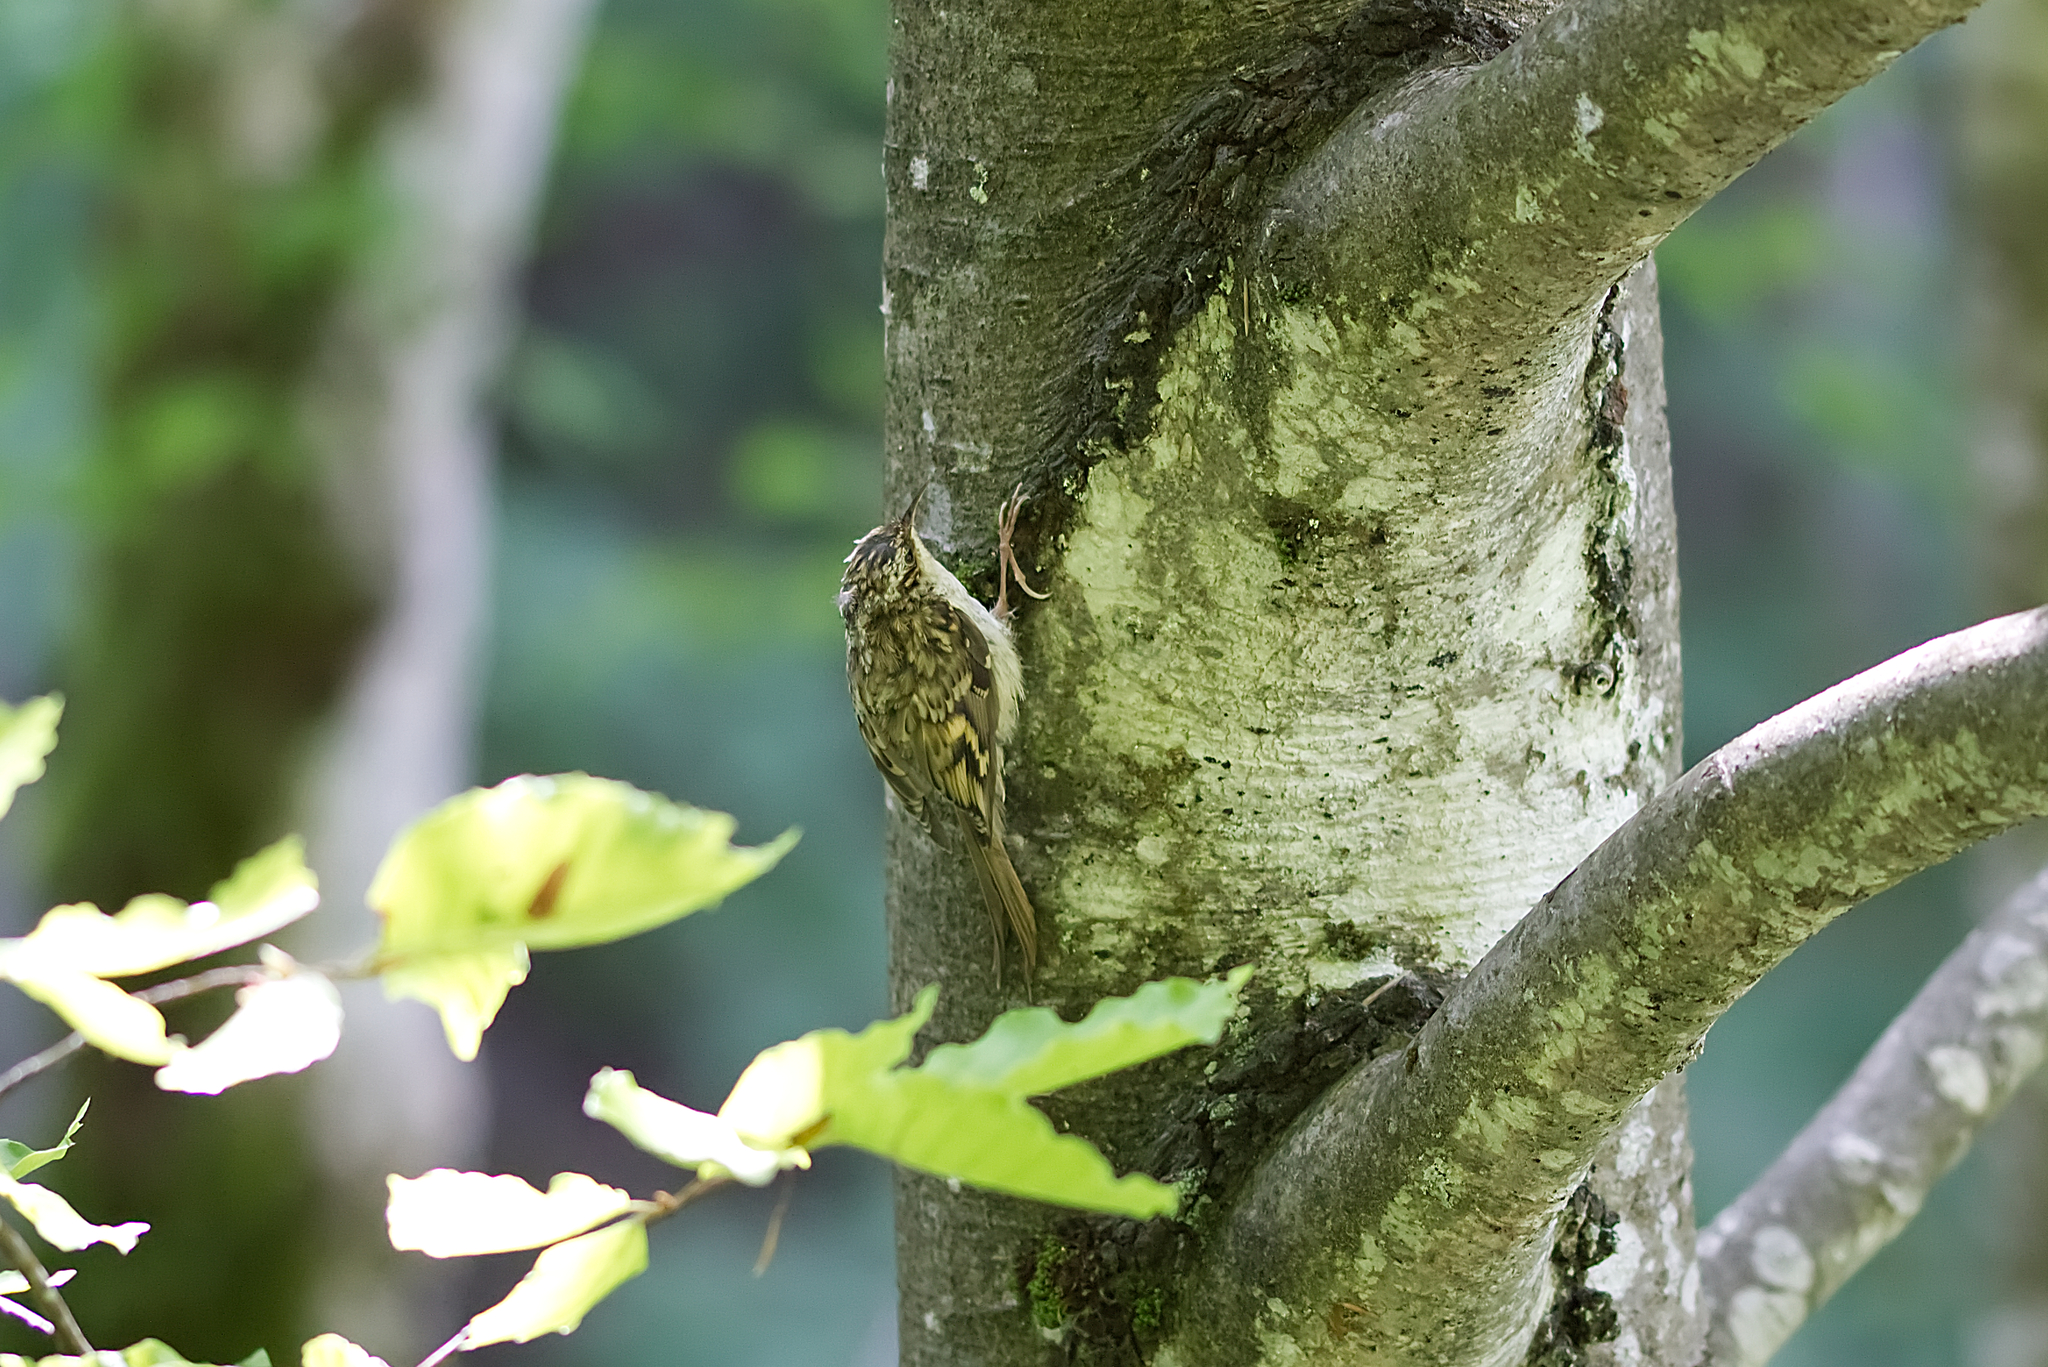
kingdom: Animalia
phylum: Chordata
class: Aves
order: Passeriformes
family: Certhiidae
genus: Certhia
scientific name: Certhia familiaris
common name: Eurasian treecreeper
